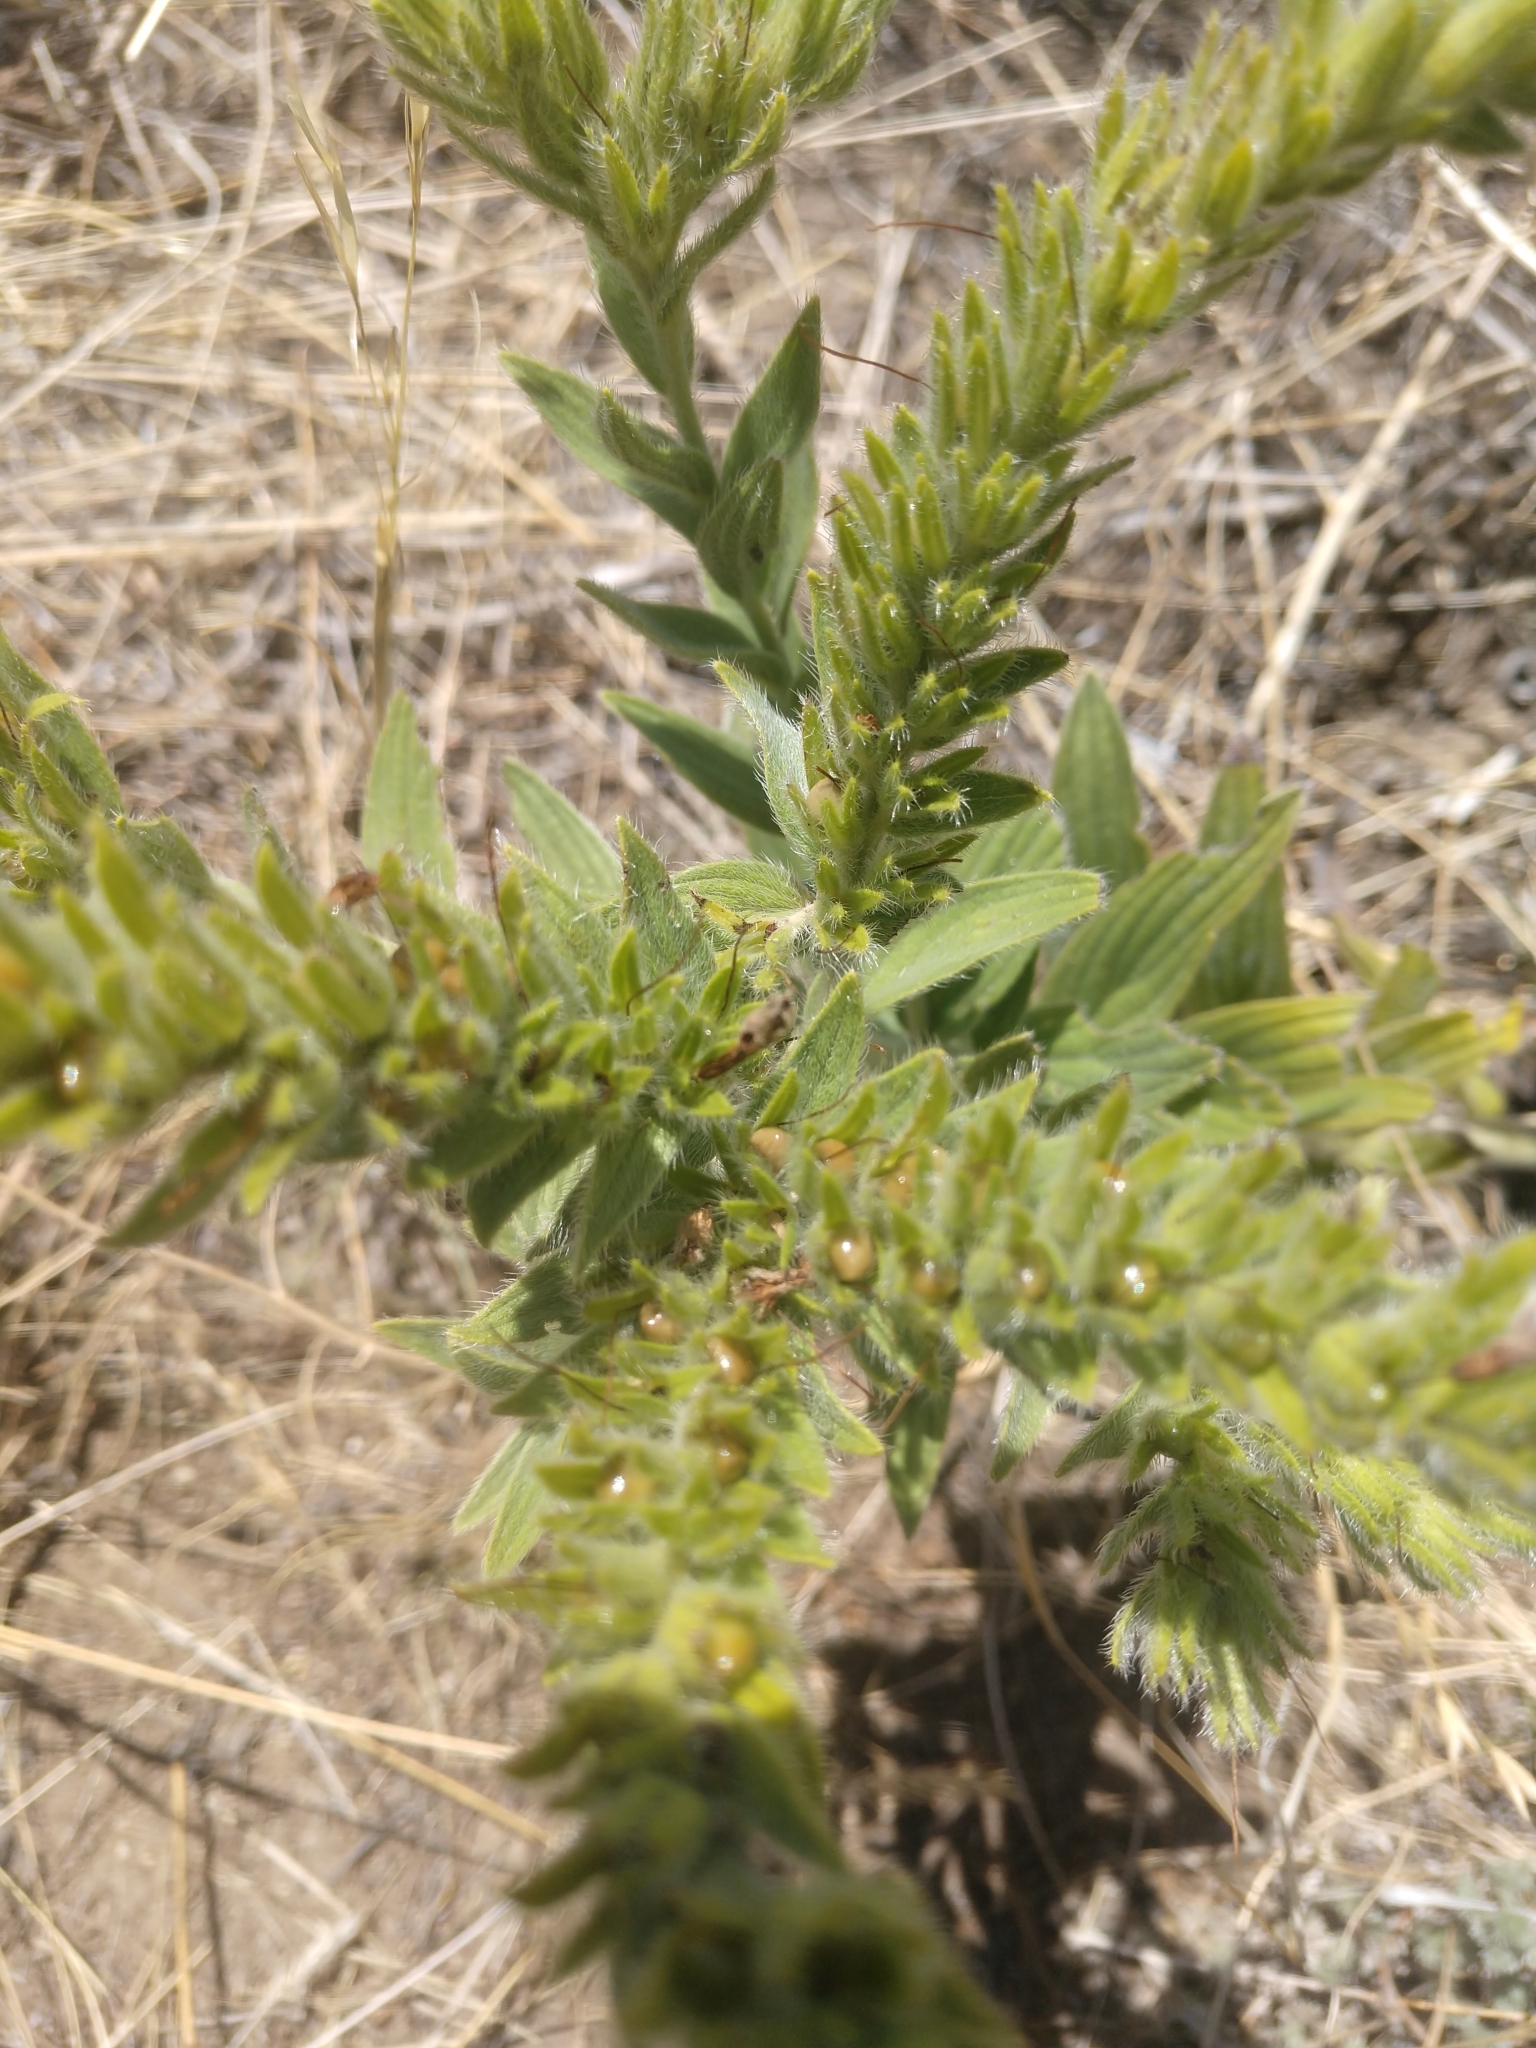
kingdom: Plantae
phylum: Tracheophyta
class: Magnoliopsida
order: Boraginales
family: Boraginaceae
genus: Lithospermum
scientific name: Lithospermum occidentale
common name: Western false gromwell
